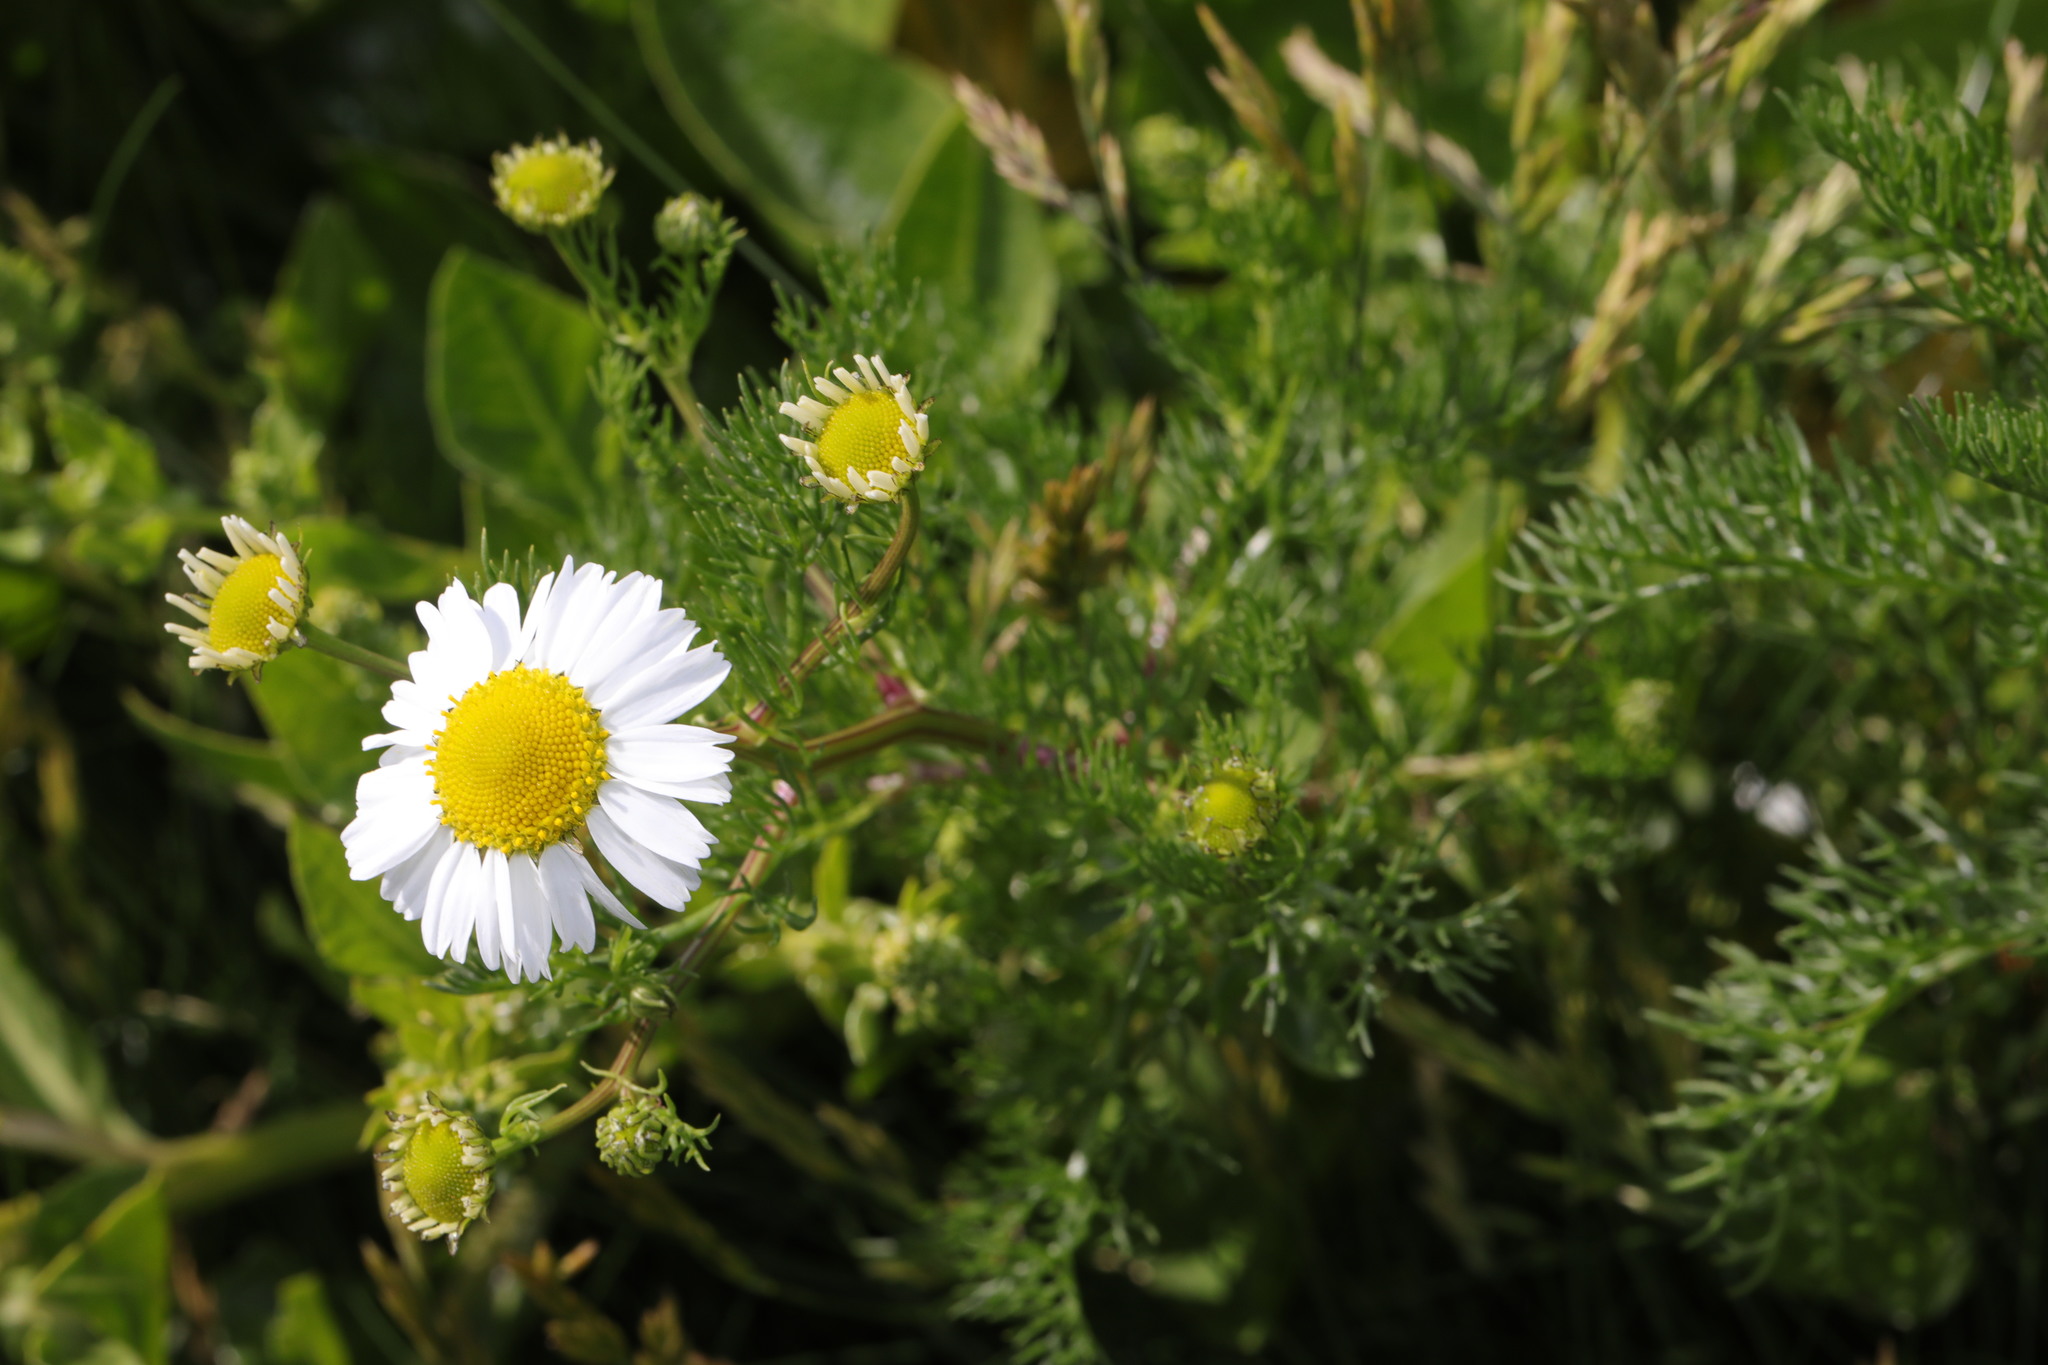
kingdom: Plantae
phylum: Tracheophyta
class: Magnoliopsida
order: Asterales
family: Asteraceae
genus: Tripleurospermum
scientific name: Tripleurospermum maritimum
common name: Sea mayweed
